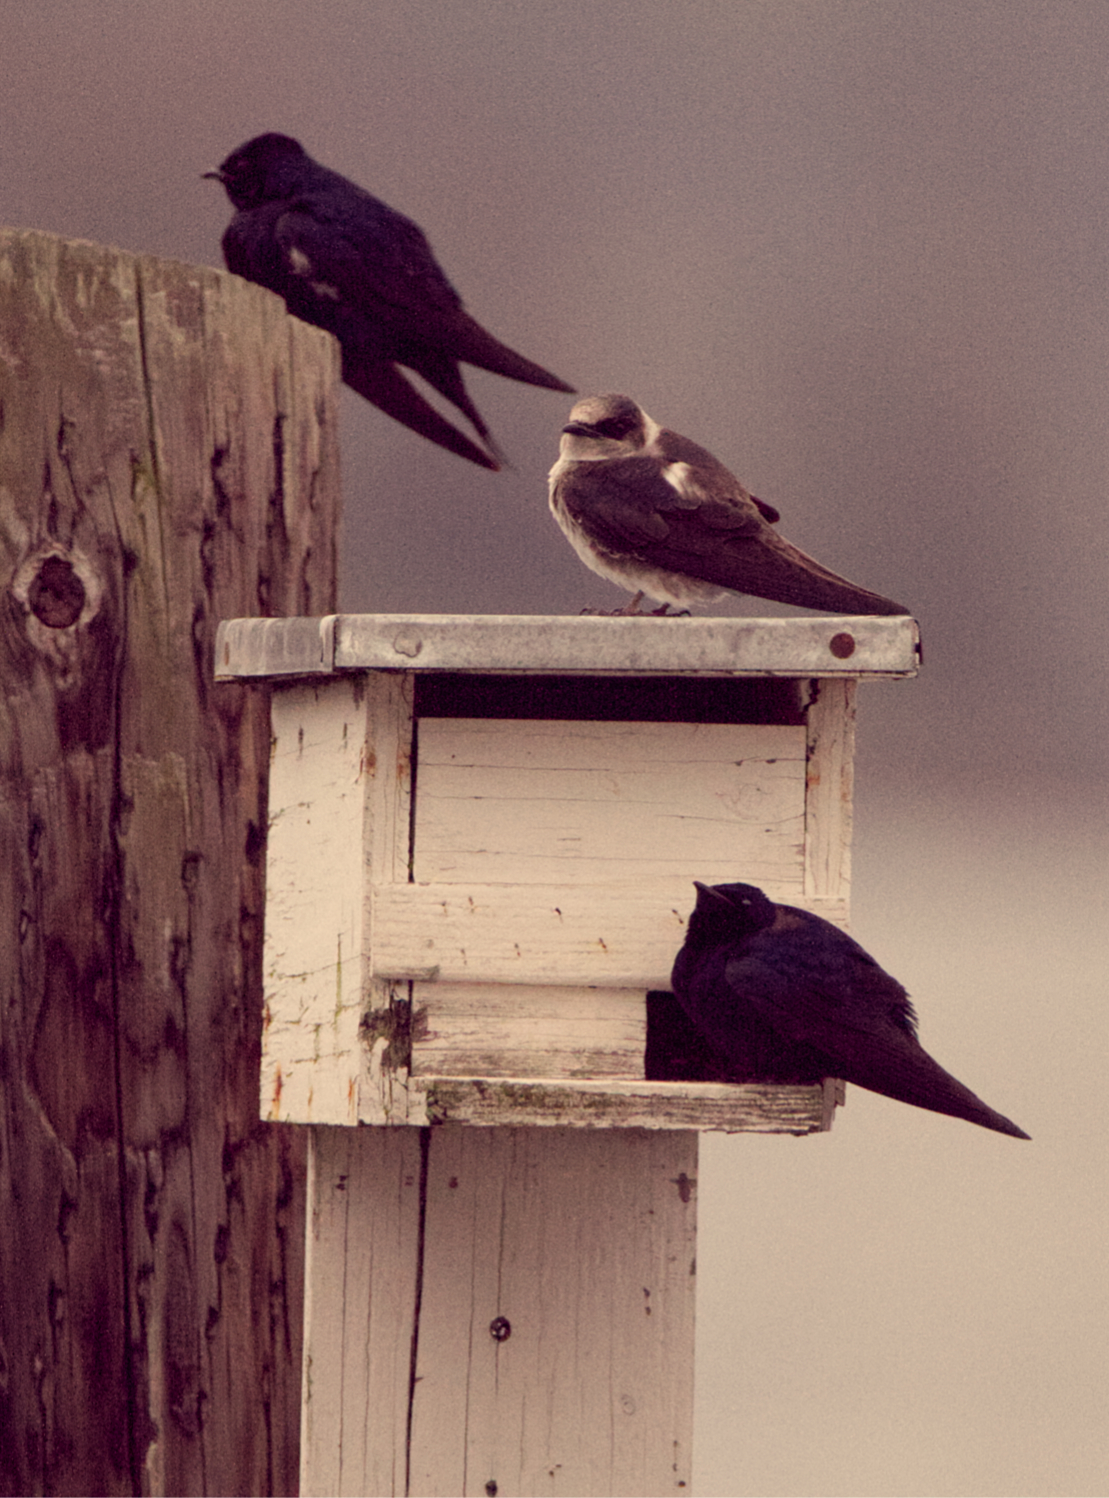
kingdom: Animalia
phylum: Chordata
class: Aves
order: Passeriformes
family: Hirundinidae
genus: Progne
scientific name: Progne subis
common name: Purple martin
